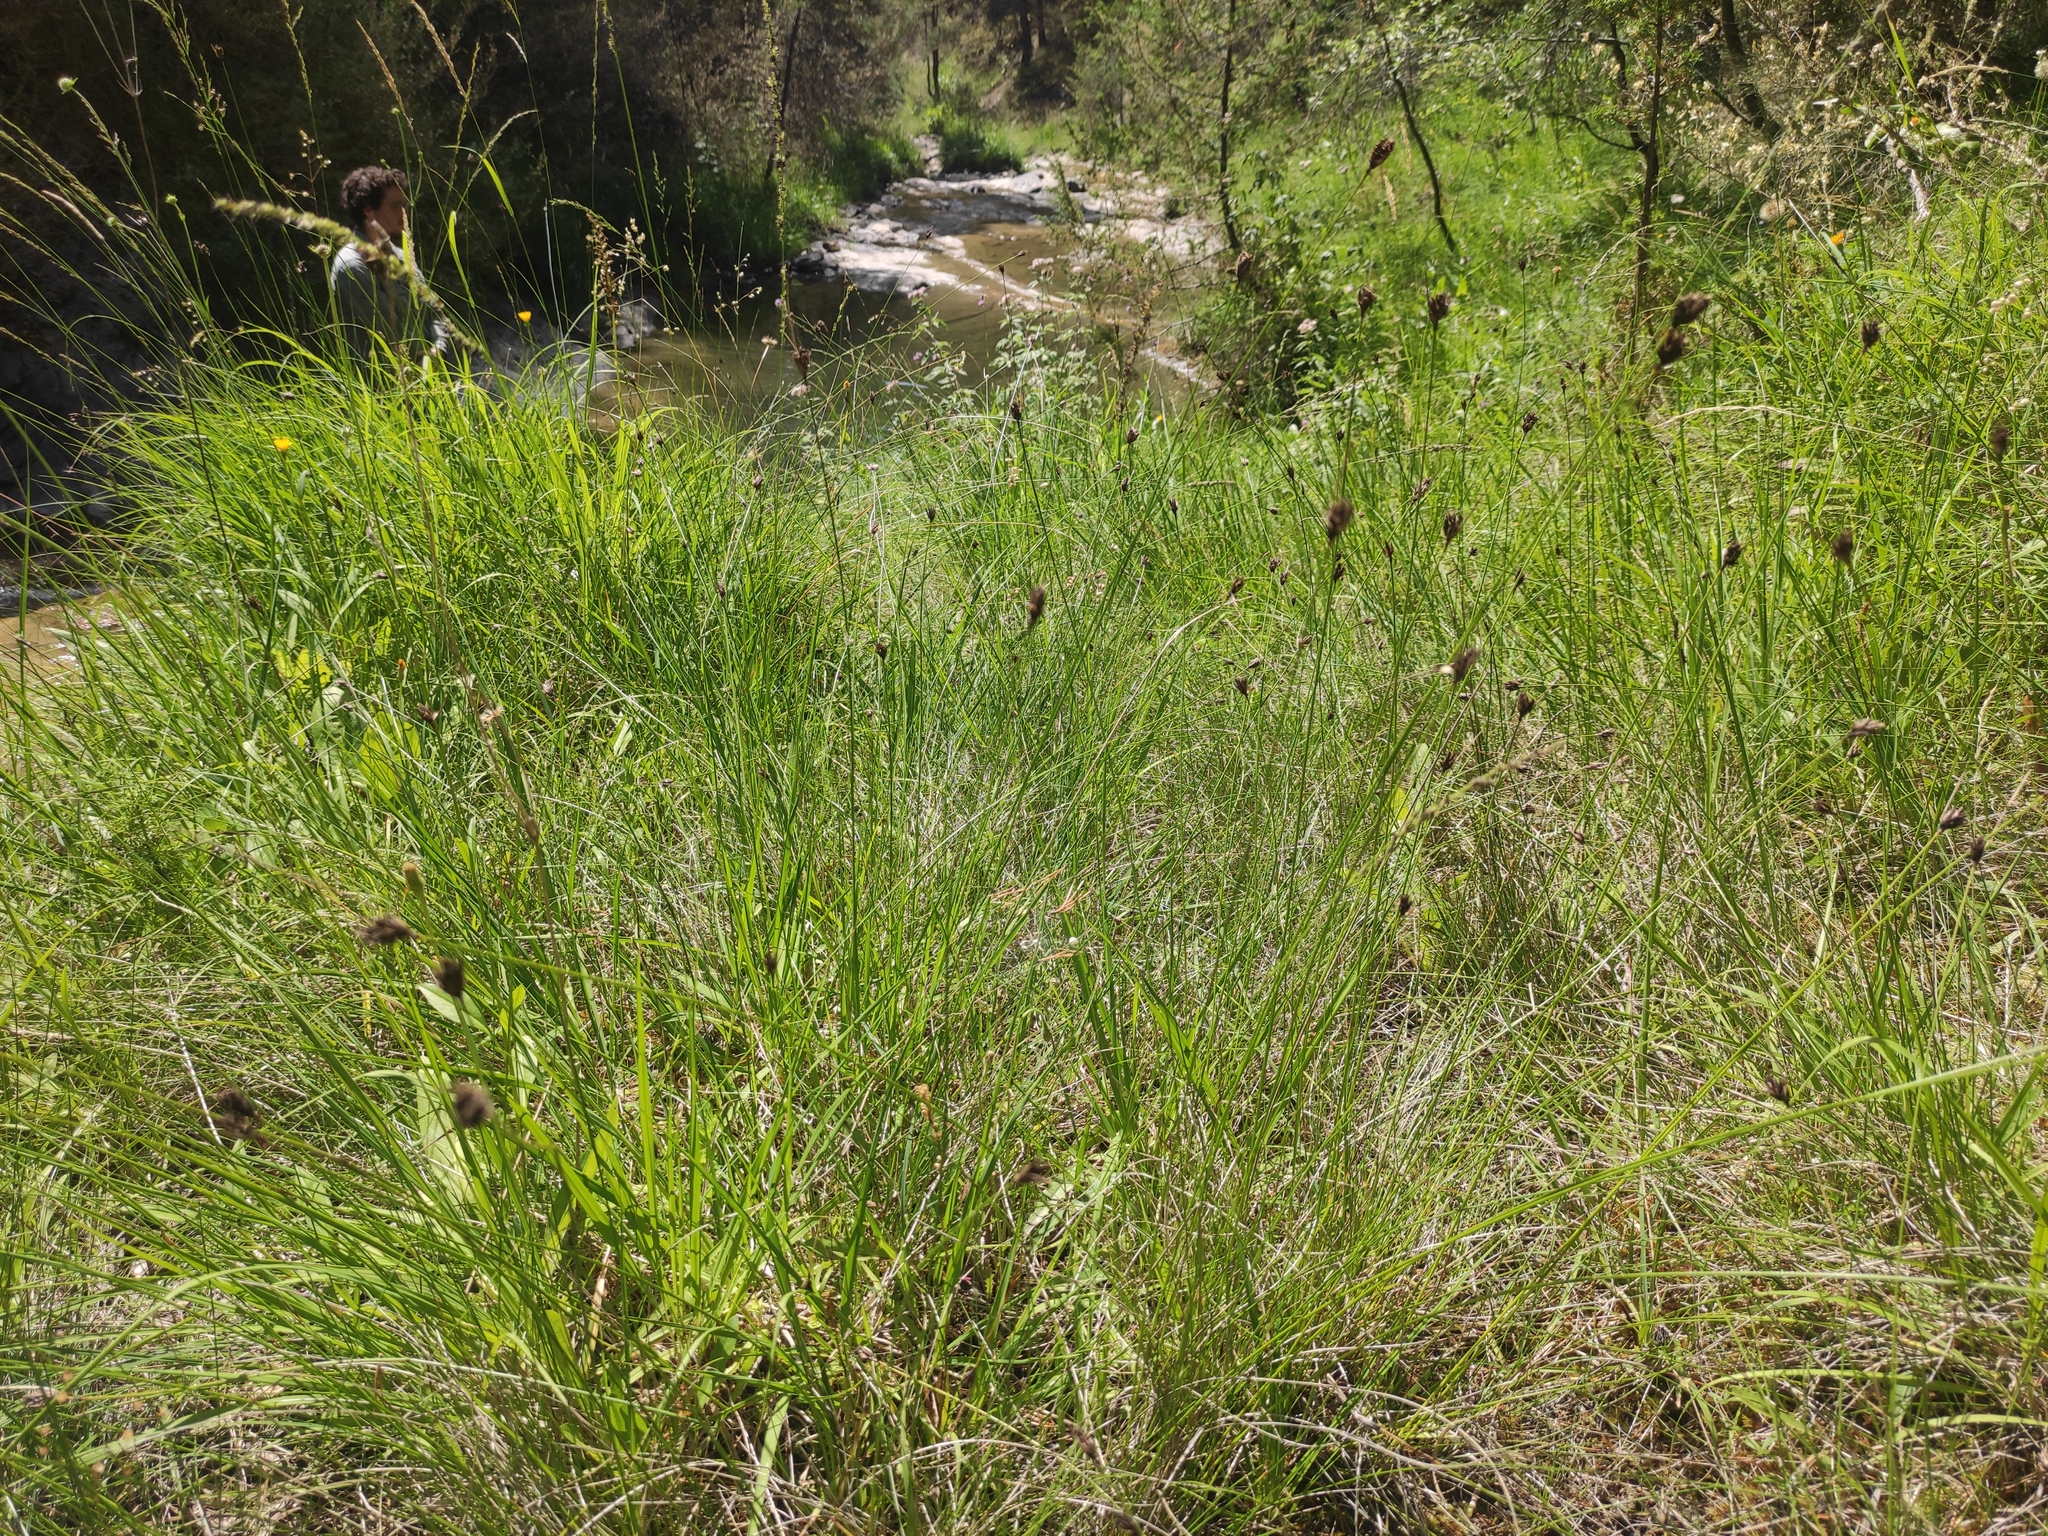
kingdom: Plantae
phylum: Tracheophyta
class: Liliopsida
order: Poales
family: Cyperaceae
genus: Schoenus
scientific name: Schoenus nigricans
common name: Black bog-rush
